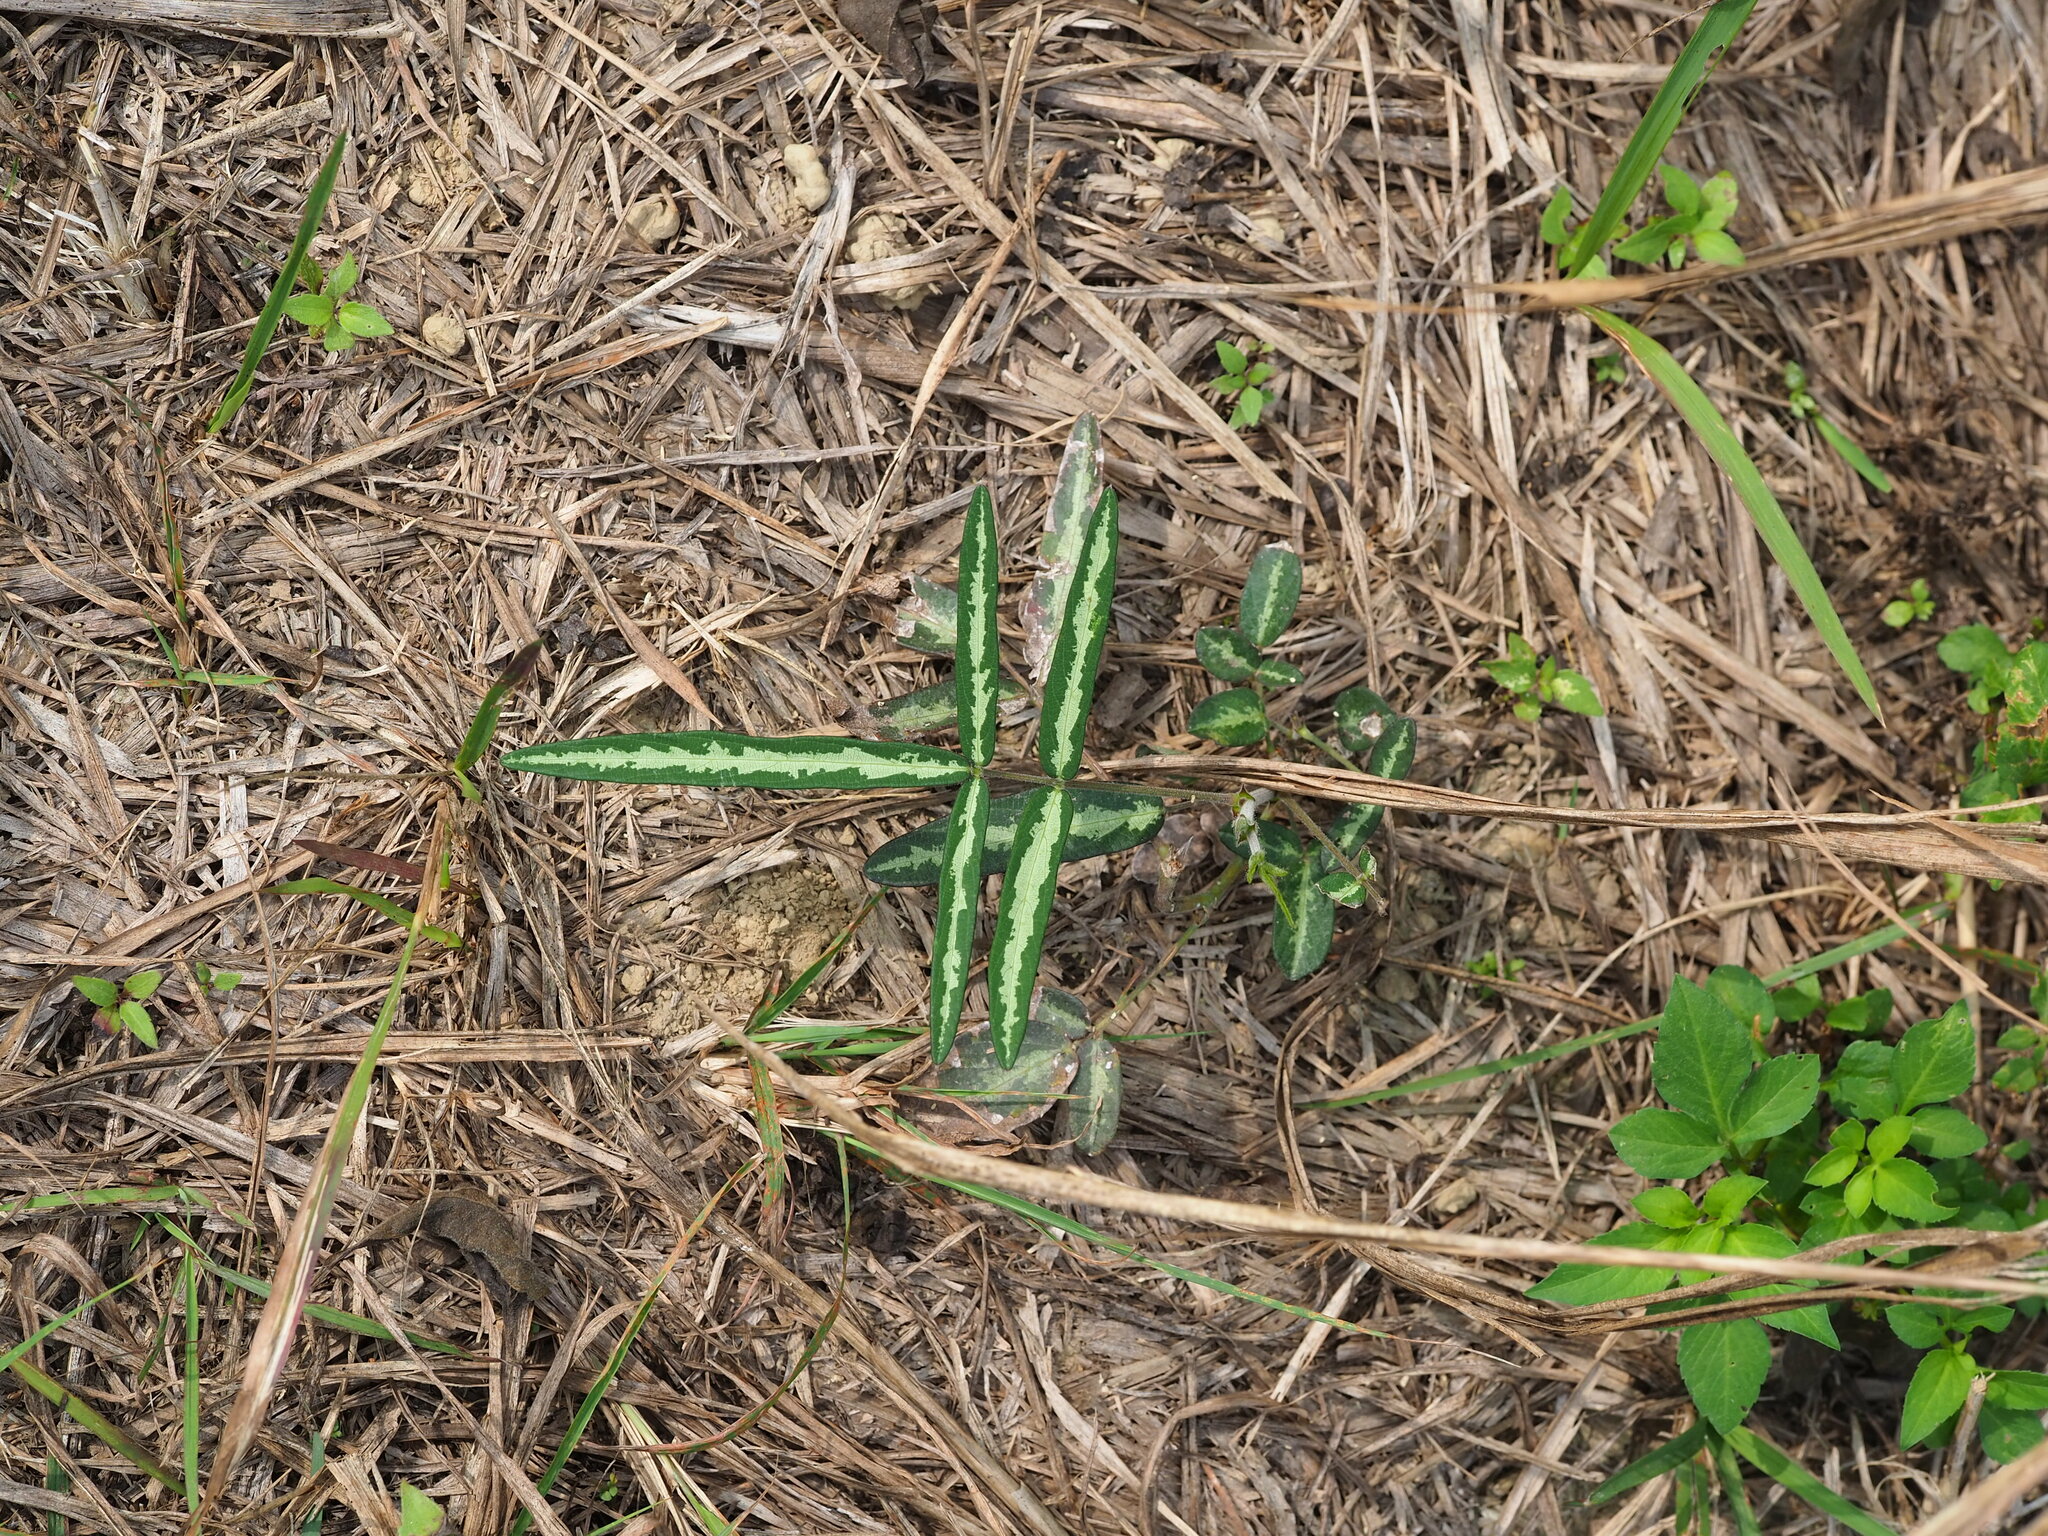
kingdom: Plantae
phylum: Tracheophyta
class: Magnoliopsida
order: Fabales
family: Fabaceae
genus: Uraria
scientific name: Uraria picta
